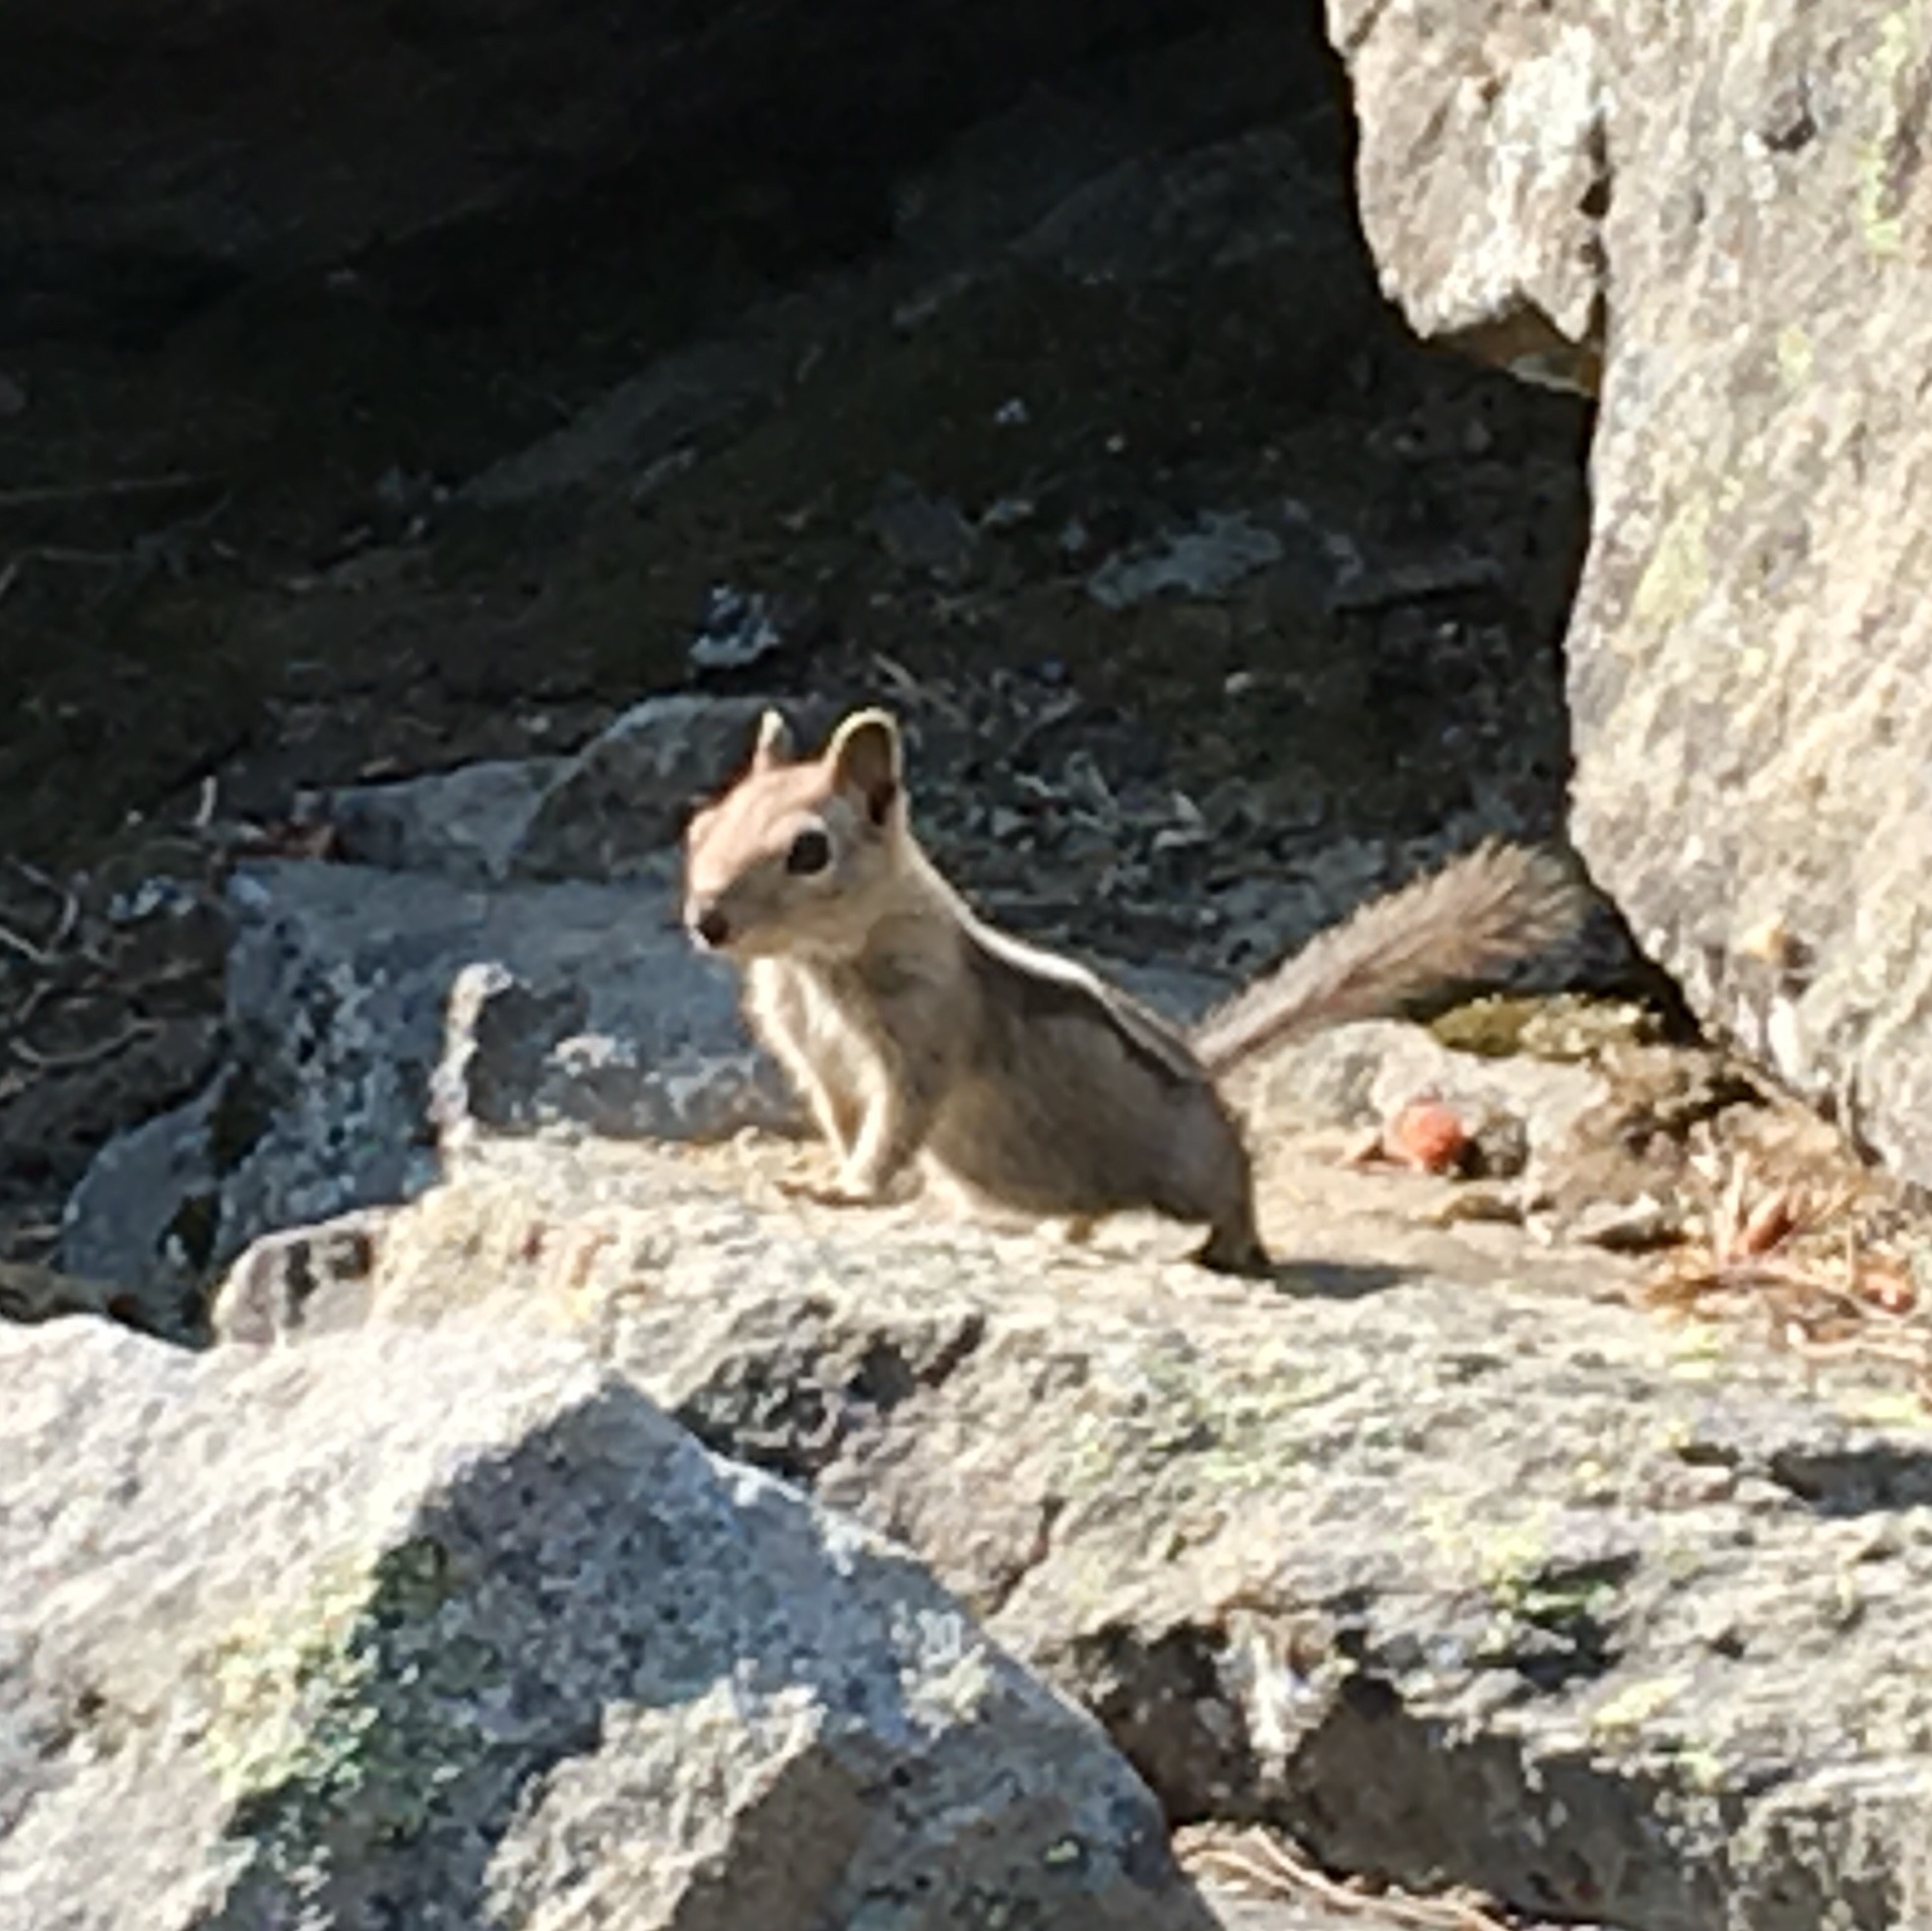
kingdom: Animalia
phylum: Chordata
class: Mammalia
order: Rodentia
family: Sciuridae
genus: Callospermophilus
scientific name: Callospermophilus lateralis
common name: Golden-mantled ground squirrel
